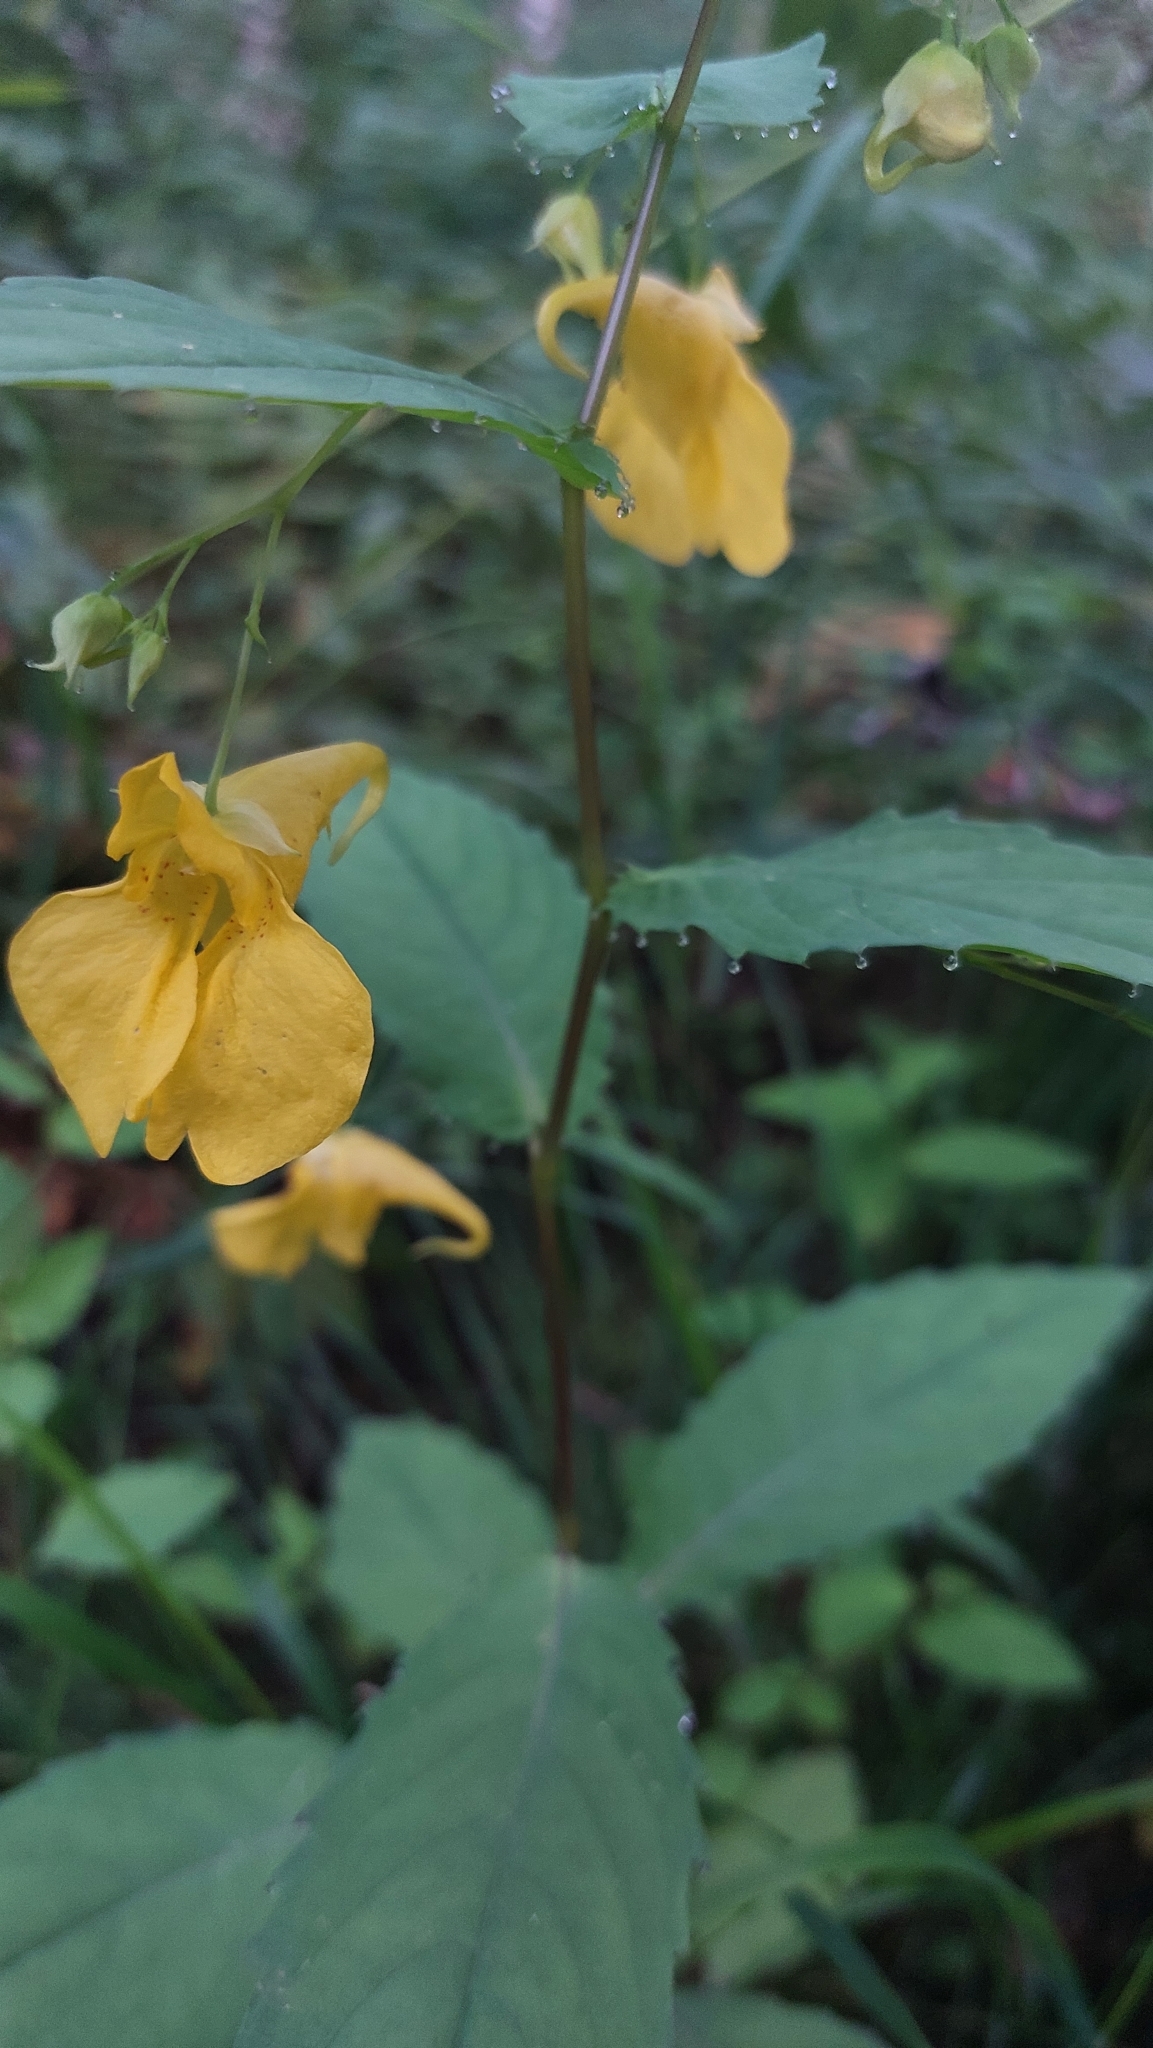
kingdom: Plantae
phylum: Tracheophyta
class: Magnoliopsida
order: Ericales
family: Balsaminaceae
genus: Impatiens
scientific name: Impatiens noli-tangere
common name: Touch-me-not balsam
